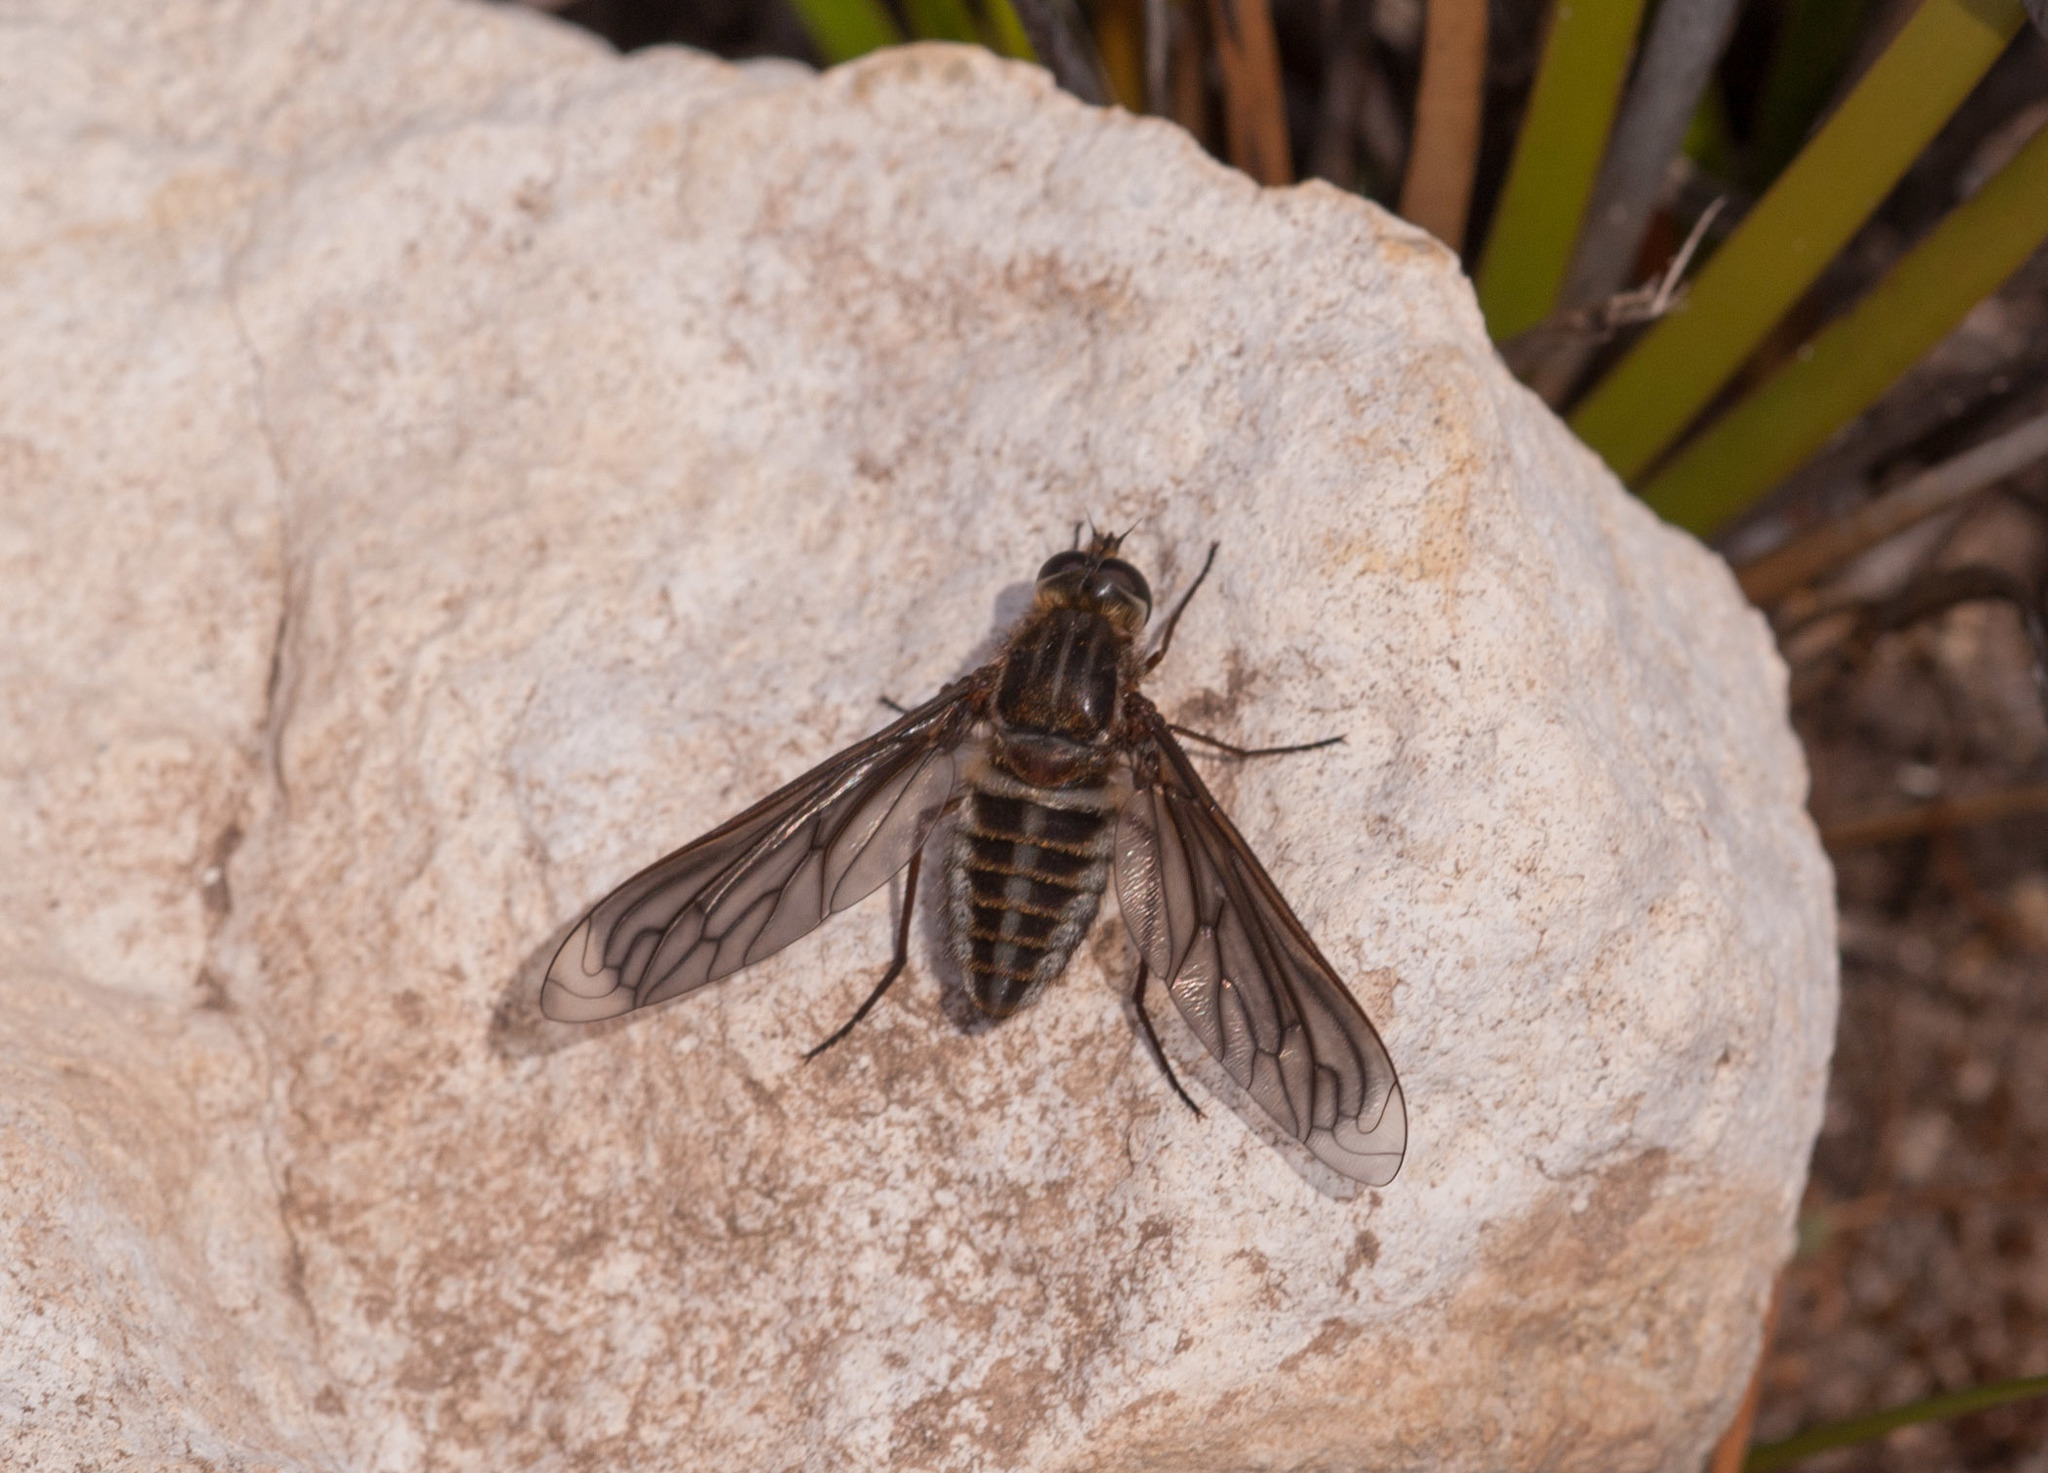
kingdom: Animalia
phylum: Arthropoda
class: Insecta
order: Diptera
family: Bombyliidae
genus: Comptosia
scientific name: Comptosia vittata
